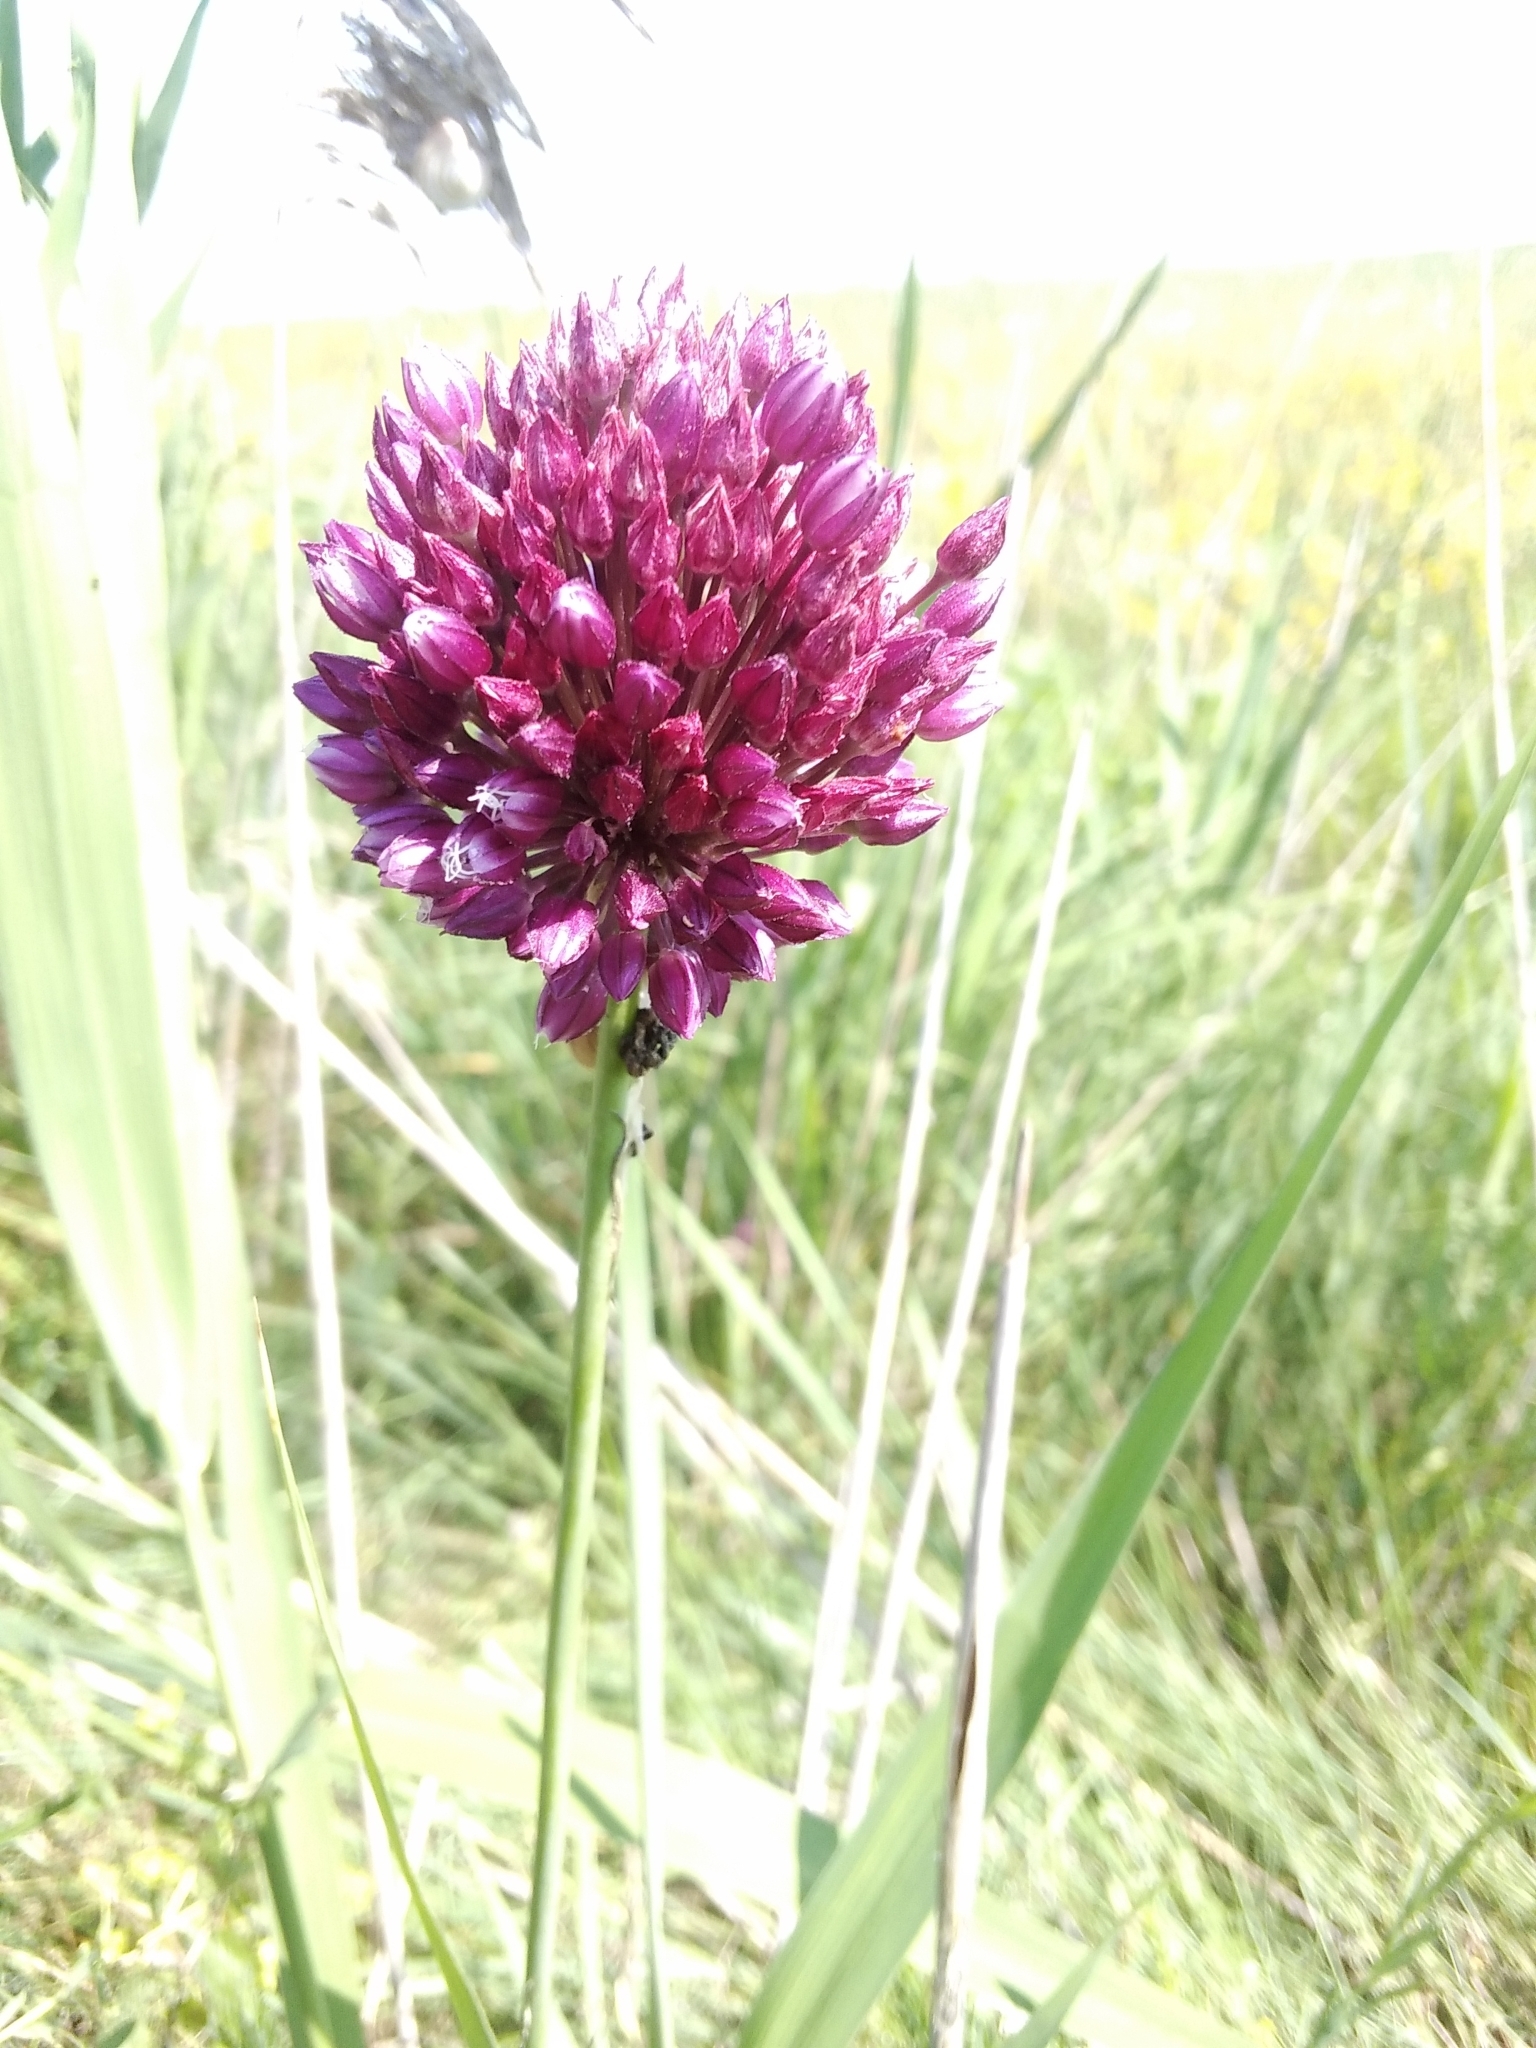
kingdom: Plantae
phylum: Tracheophyta
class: Liliopsida
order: Asparagales
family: Amaryllidaceae
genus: Allium
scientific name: Allium rotundum
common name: Sand leek
